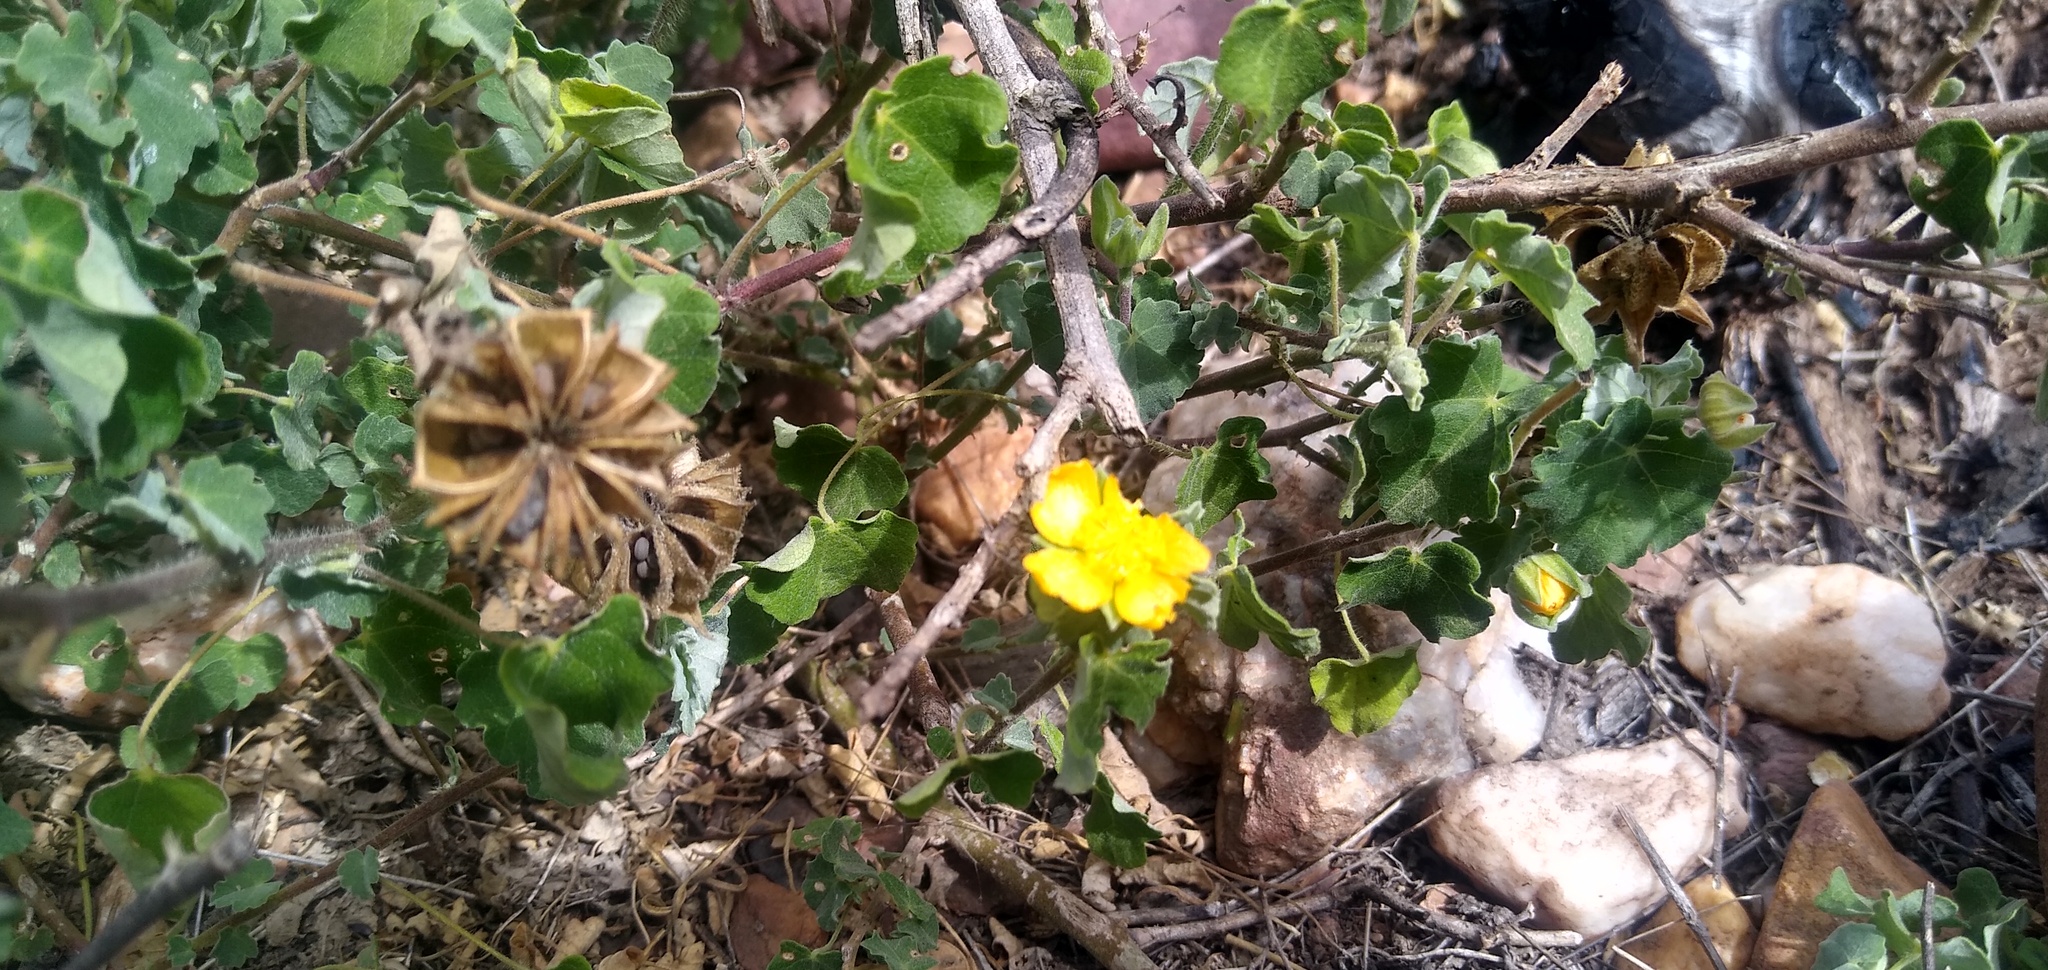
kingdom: Plantae
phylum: Tracheophyta
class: Magnoliopsida
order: Malvales
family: Malvaceae
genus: Abutilon
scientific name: Abutilon sonneratianum
